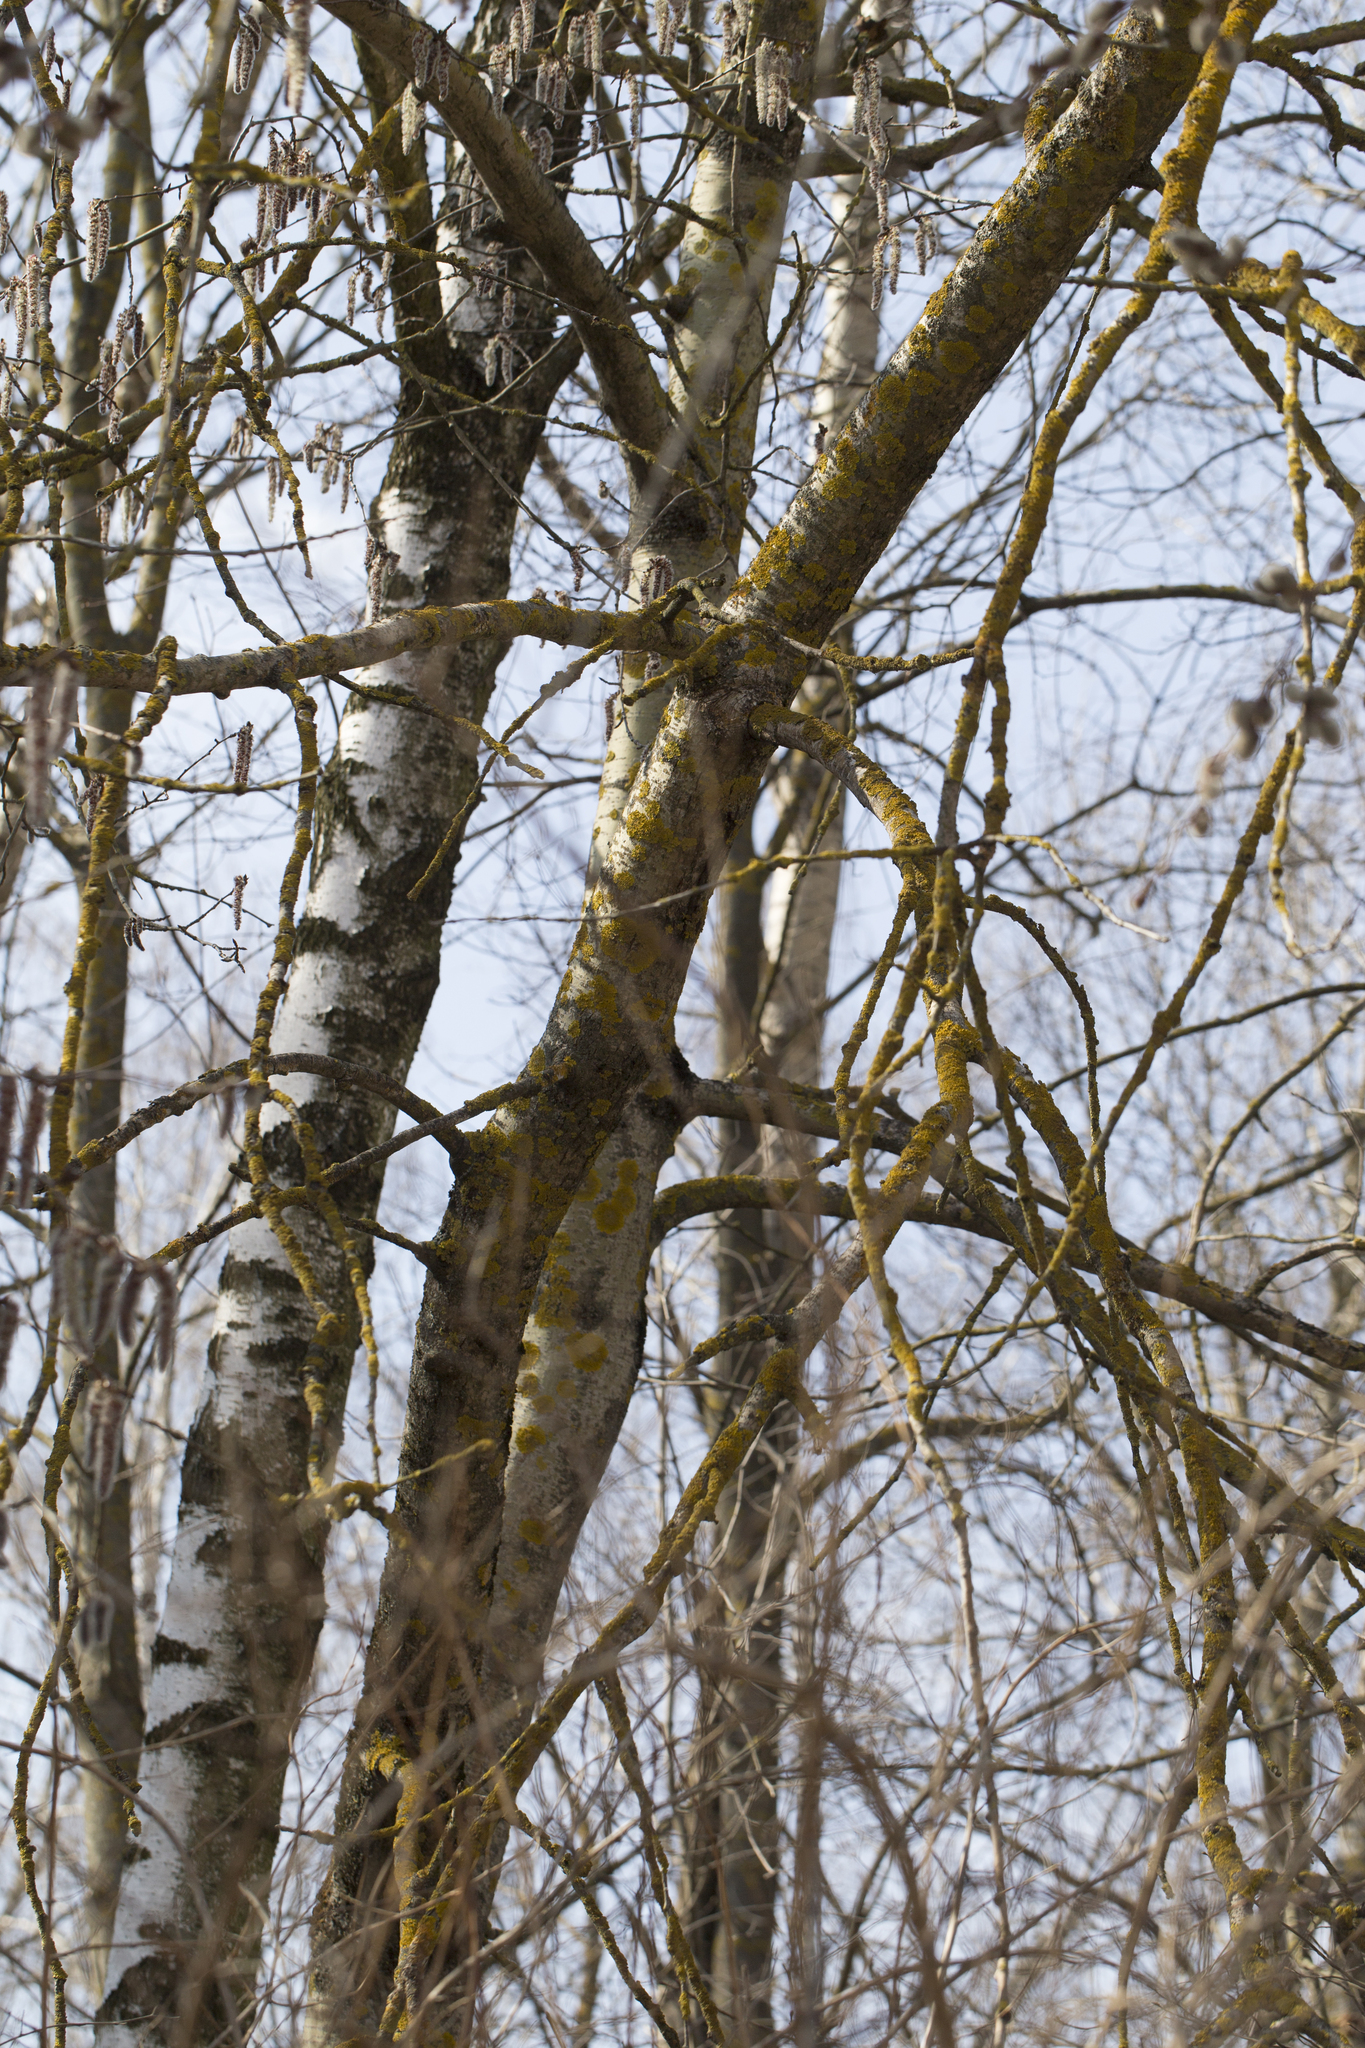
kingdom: Plantae
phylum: Tracheophyta
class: Magnoliopsida
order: Malpighiales
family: Salicaceae
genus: Populus
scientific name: Populus tremula
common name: European aspen
